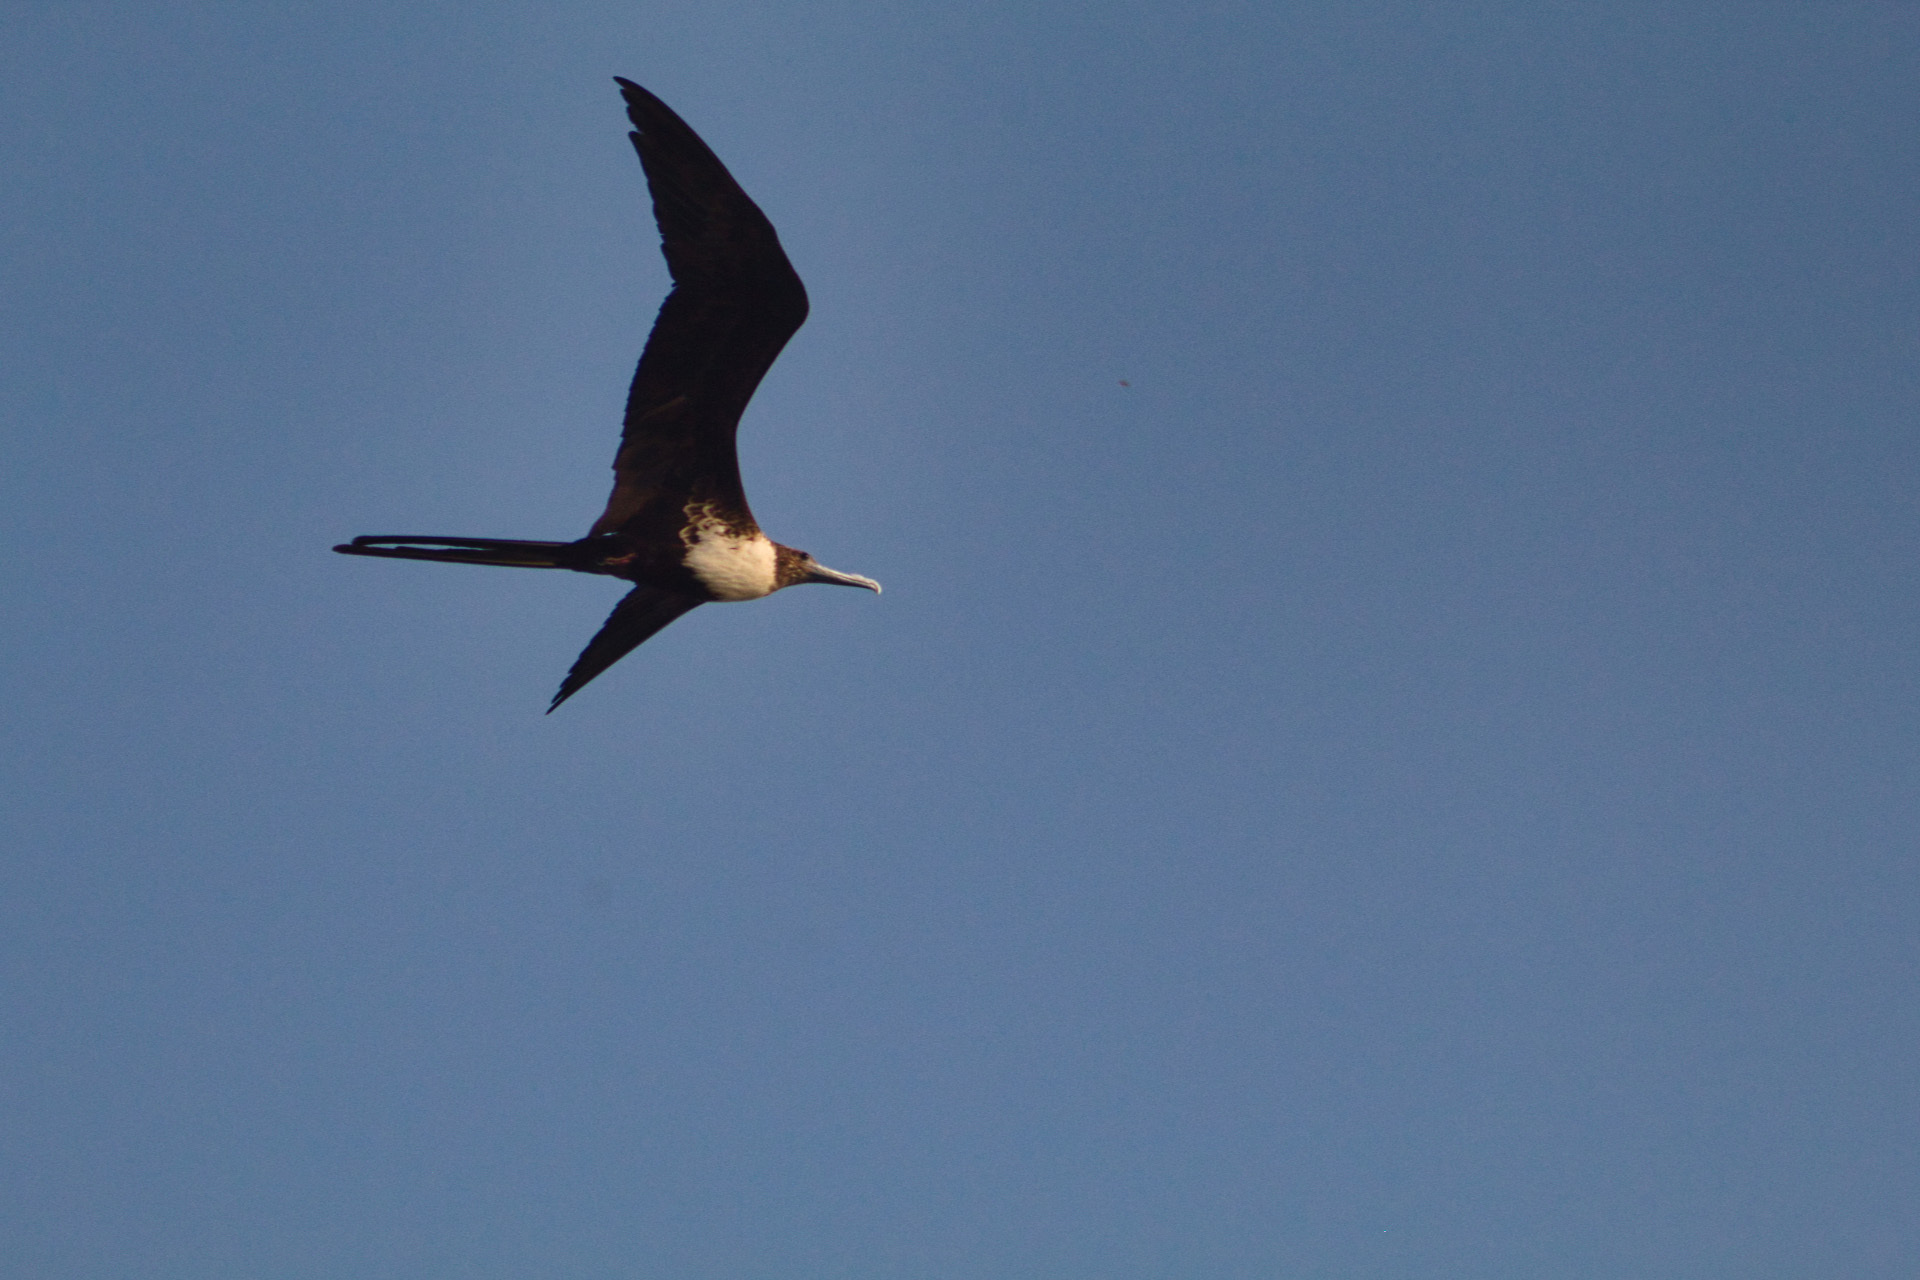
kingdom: Animalia
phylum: Chordata
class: Aves
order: Suliformes
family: Fregatidae
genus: Fregata
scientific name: Fregata magnificens
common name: Magnificent frigatebird
